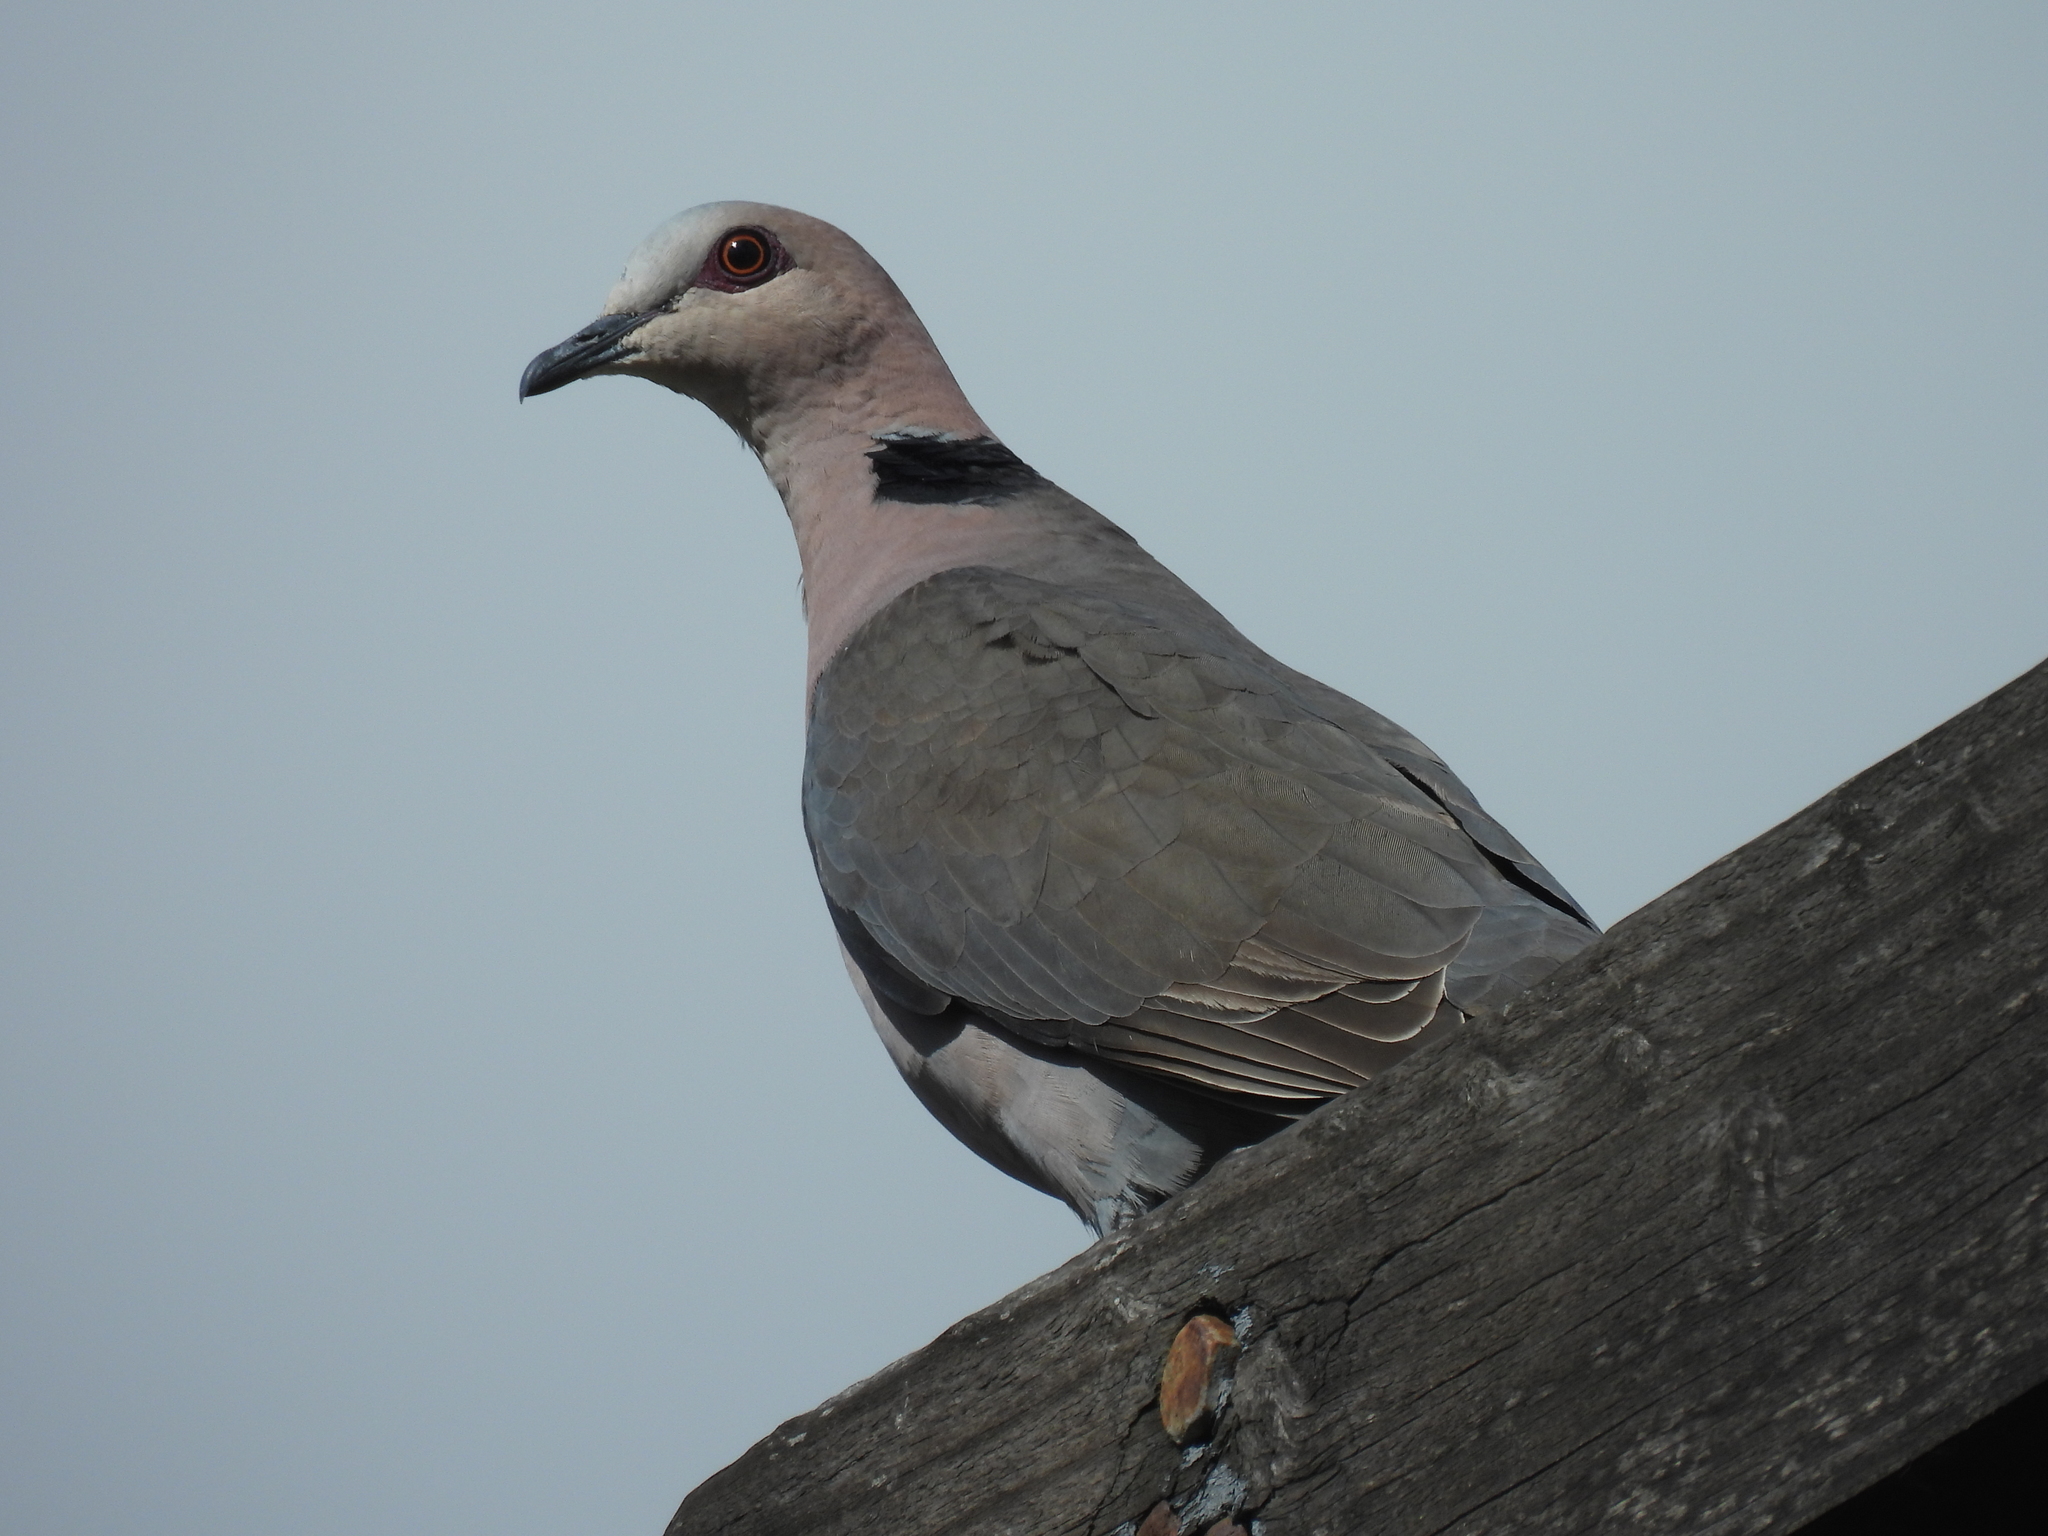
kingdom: Animalia
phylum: Chordata
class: Aves
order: Columbiformes
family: Columbidae
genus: Streptopelia
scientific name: Streptopelia semitorquata
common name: Red-eyed dove
